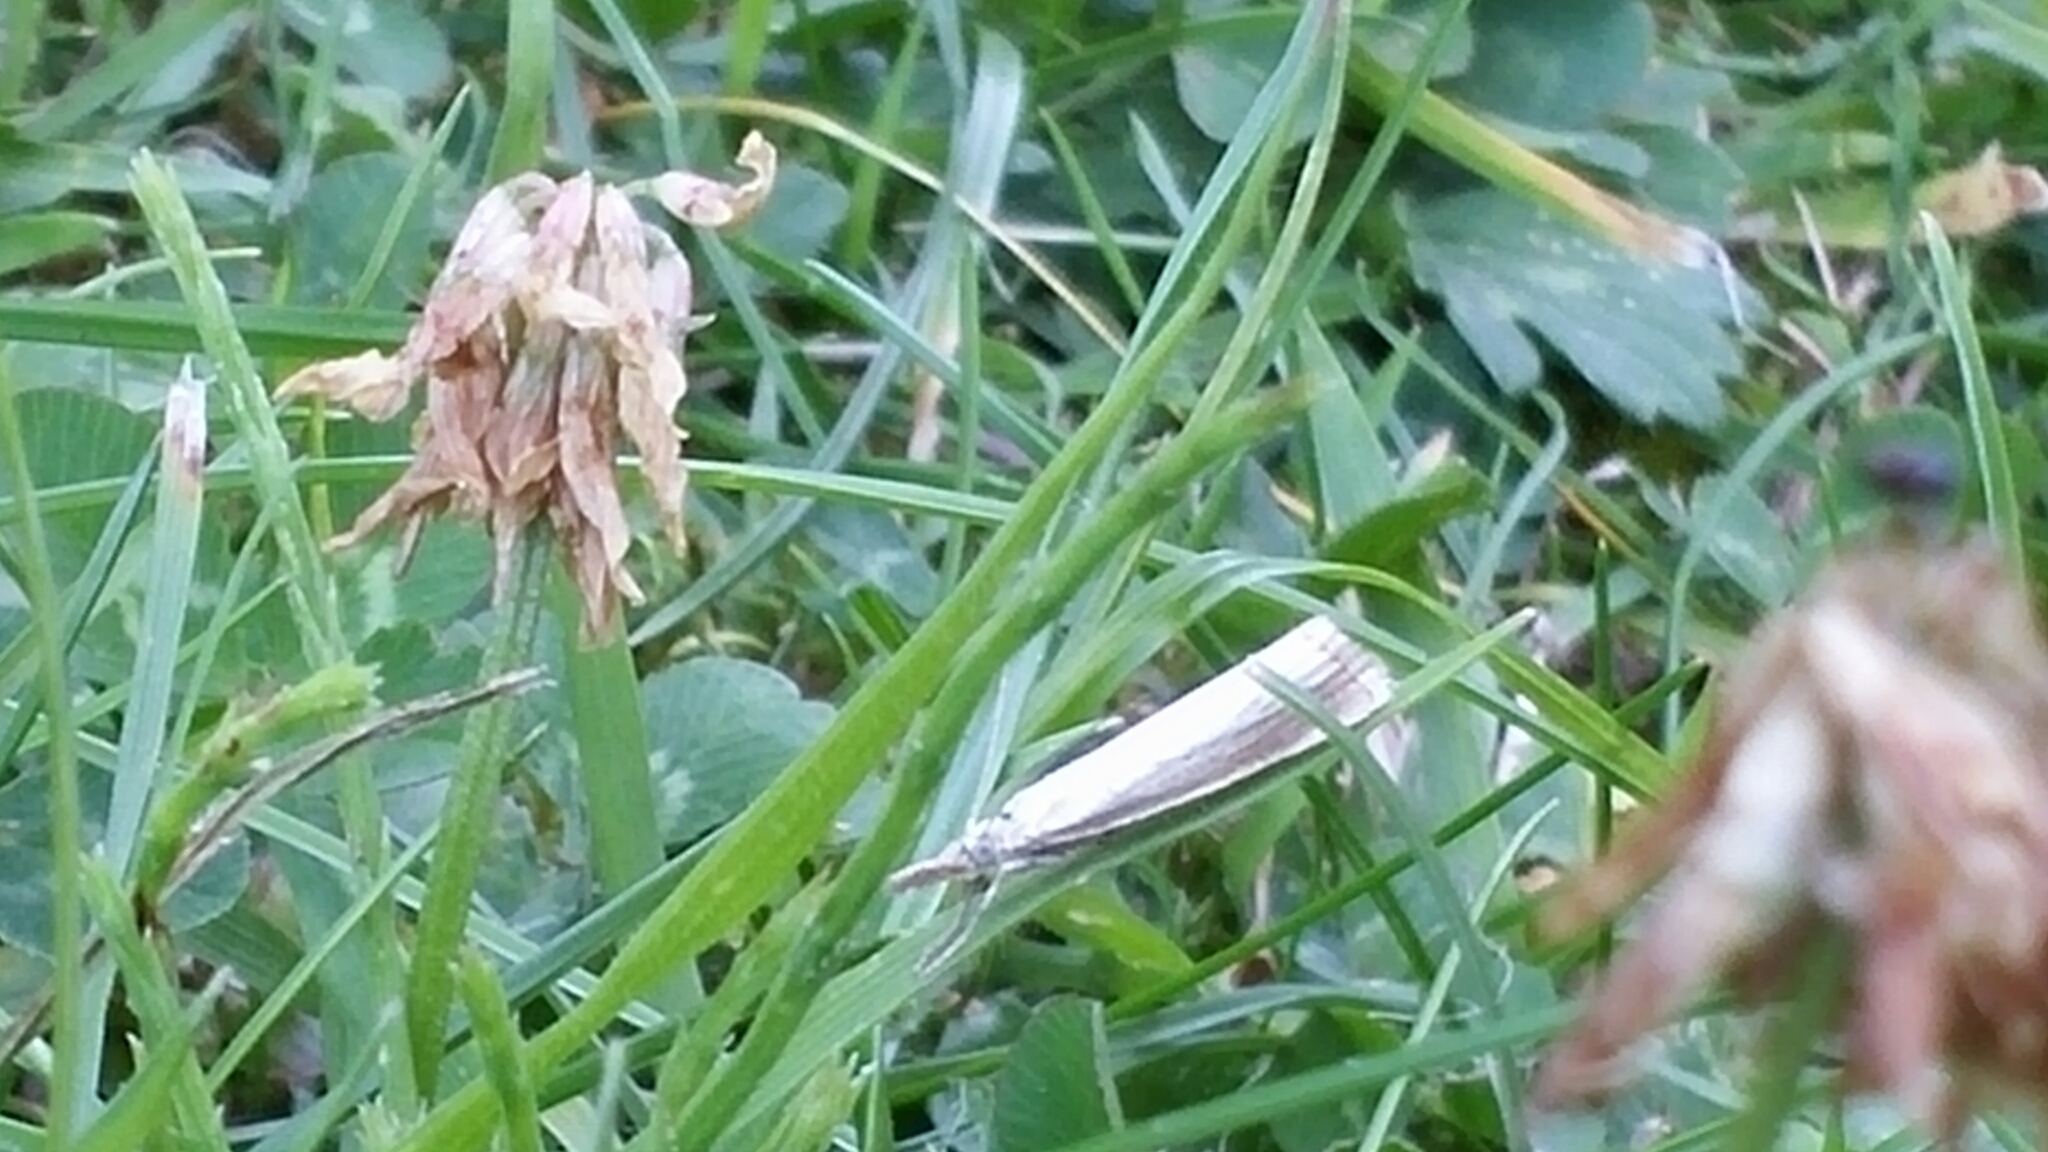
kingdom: Animalia
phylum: Arthropoda
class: Insecta
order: Lepidoptera
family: Crambidae
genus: Agriphila
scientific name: Agriphila straminella
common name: Straw grass-veneer
